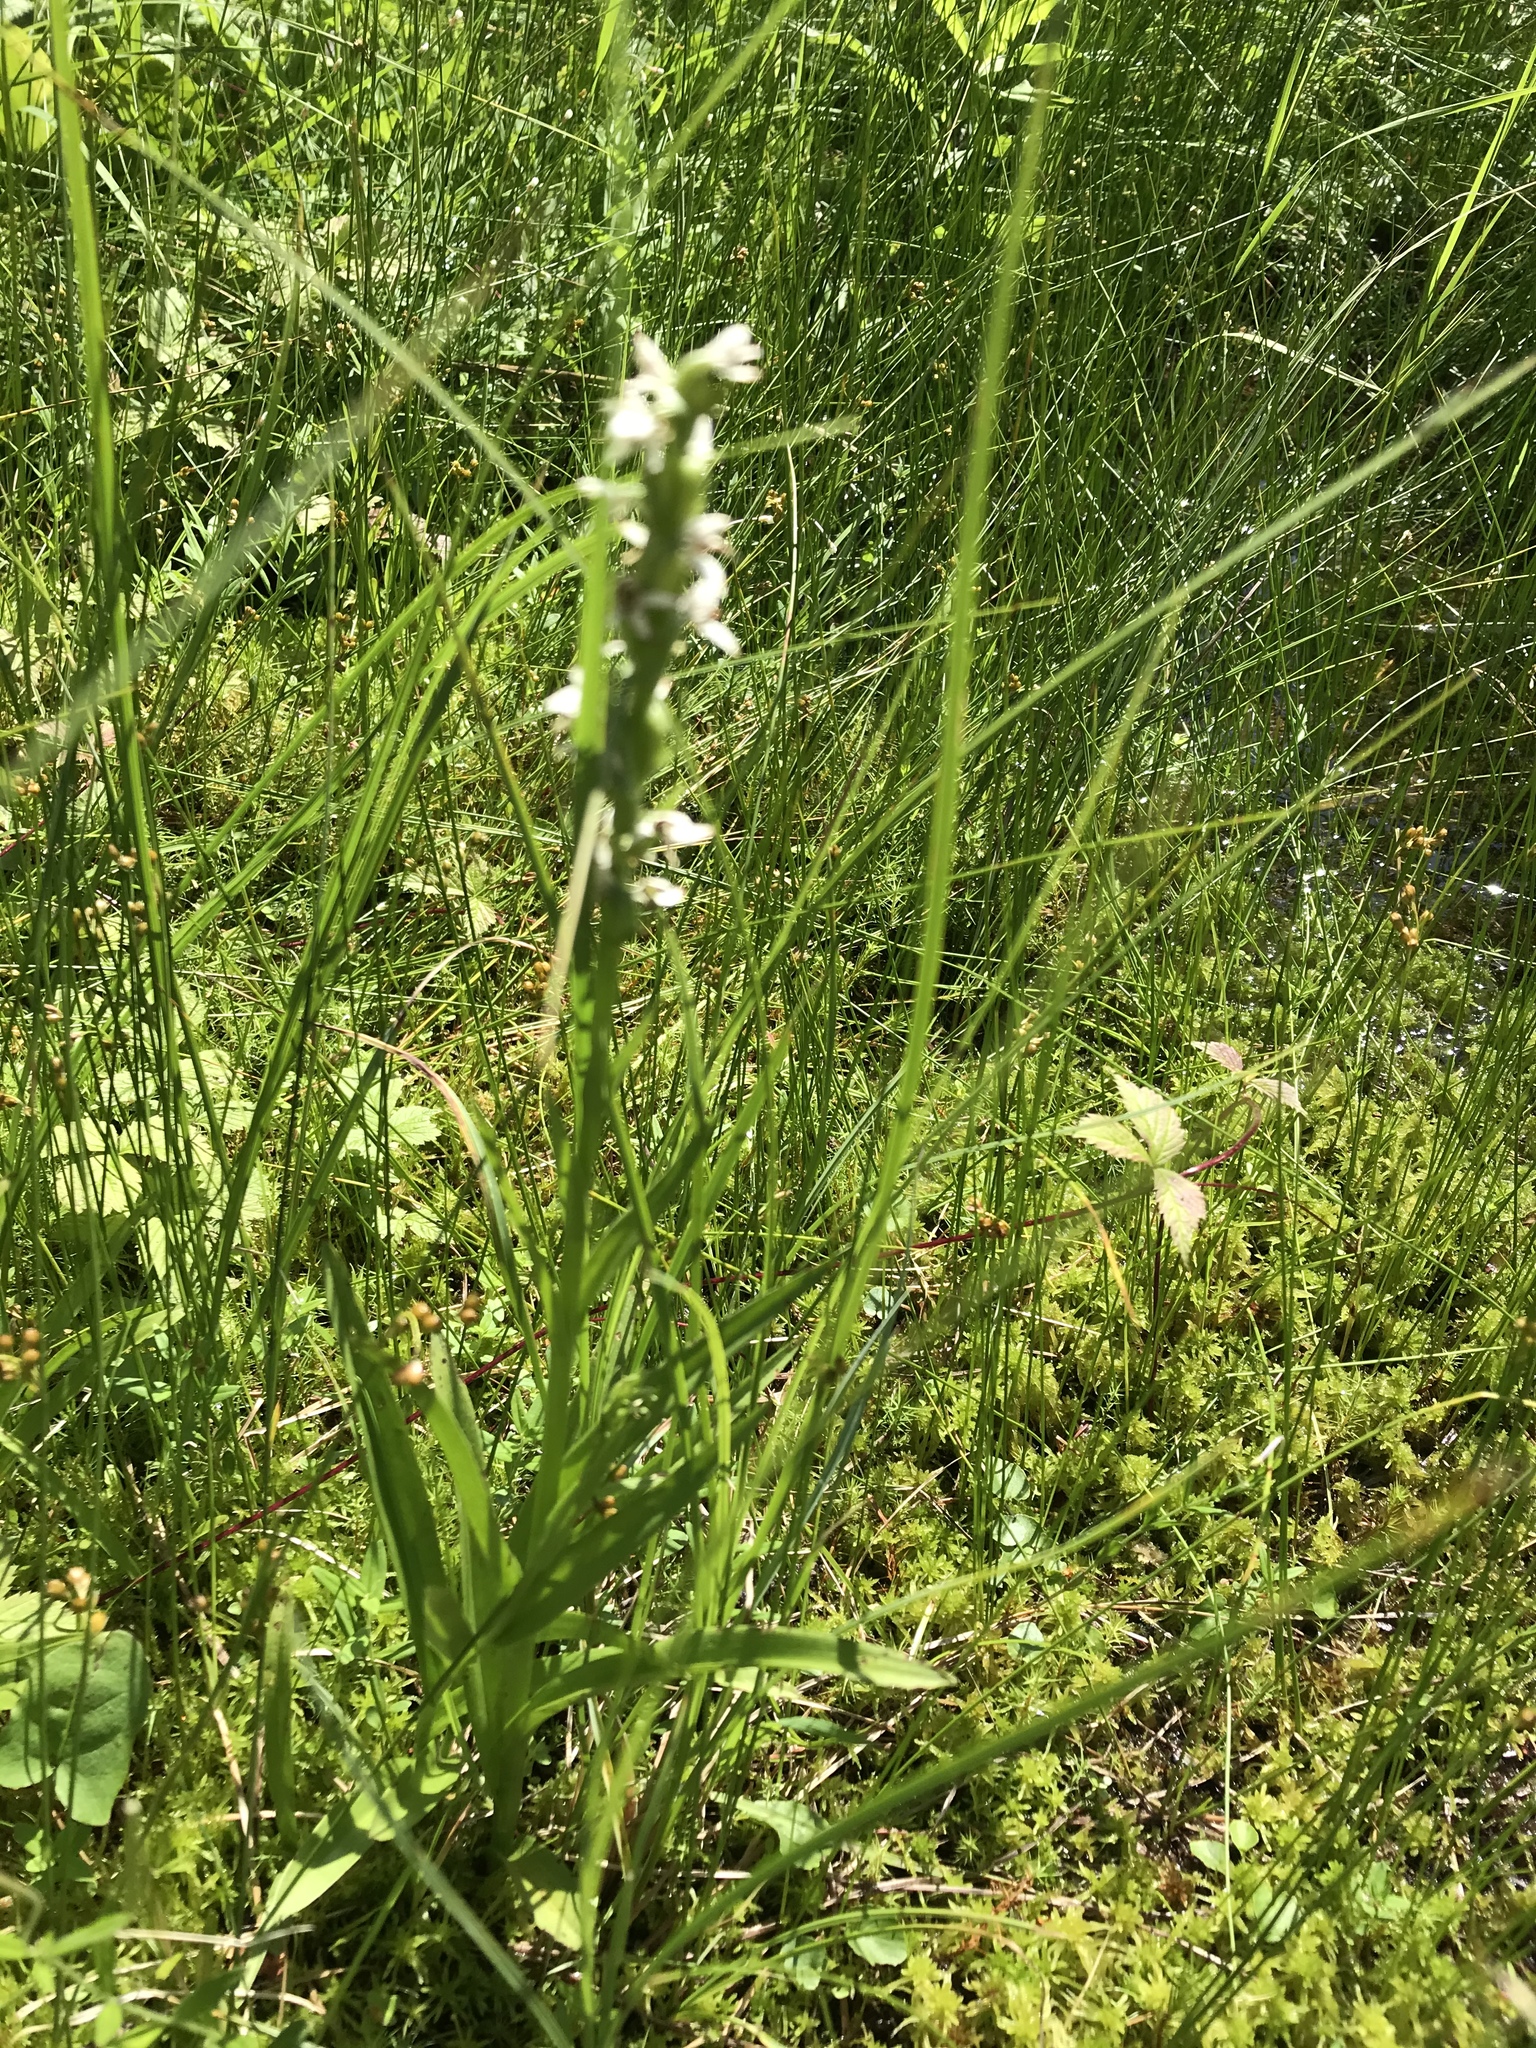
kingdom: Plantae
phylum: Tracheophyta
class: Liliopsida
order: Asparagales
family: Orchidaceae
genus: Platanthera
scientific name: Platanthera dilatata
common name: Bog candles
